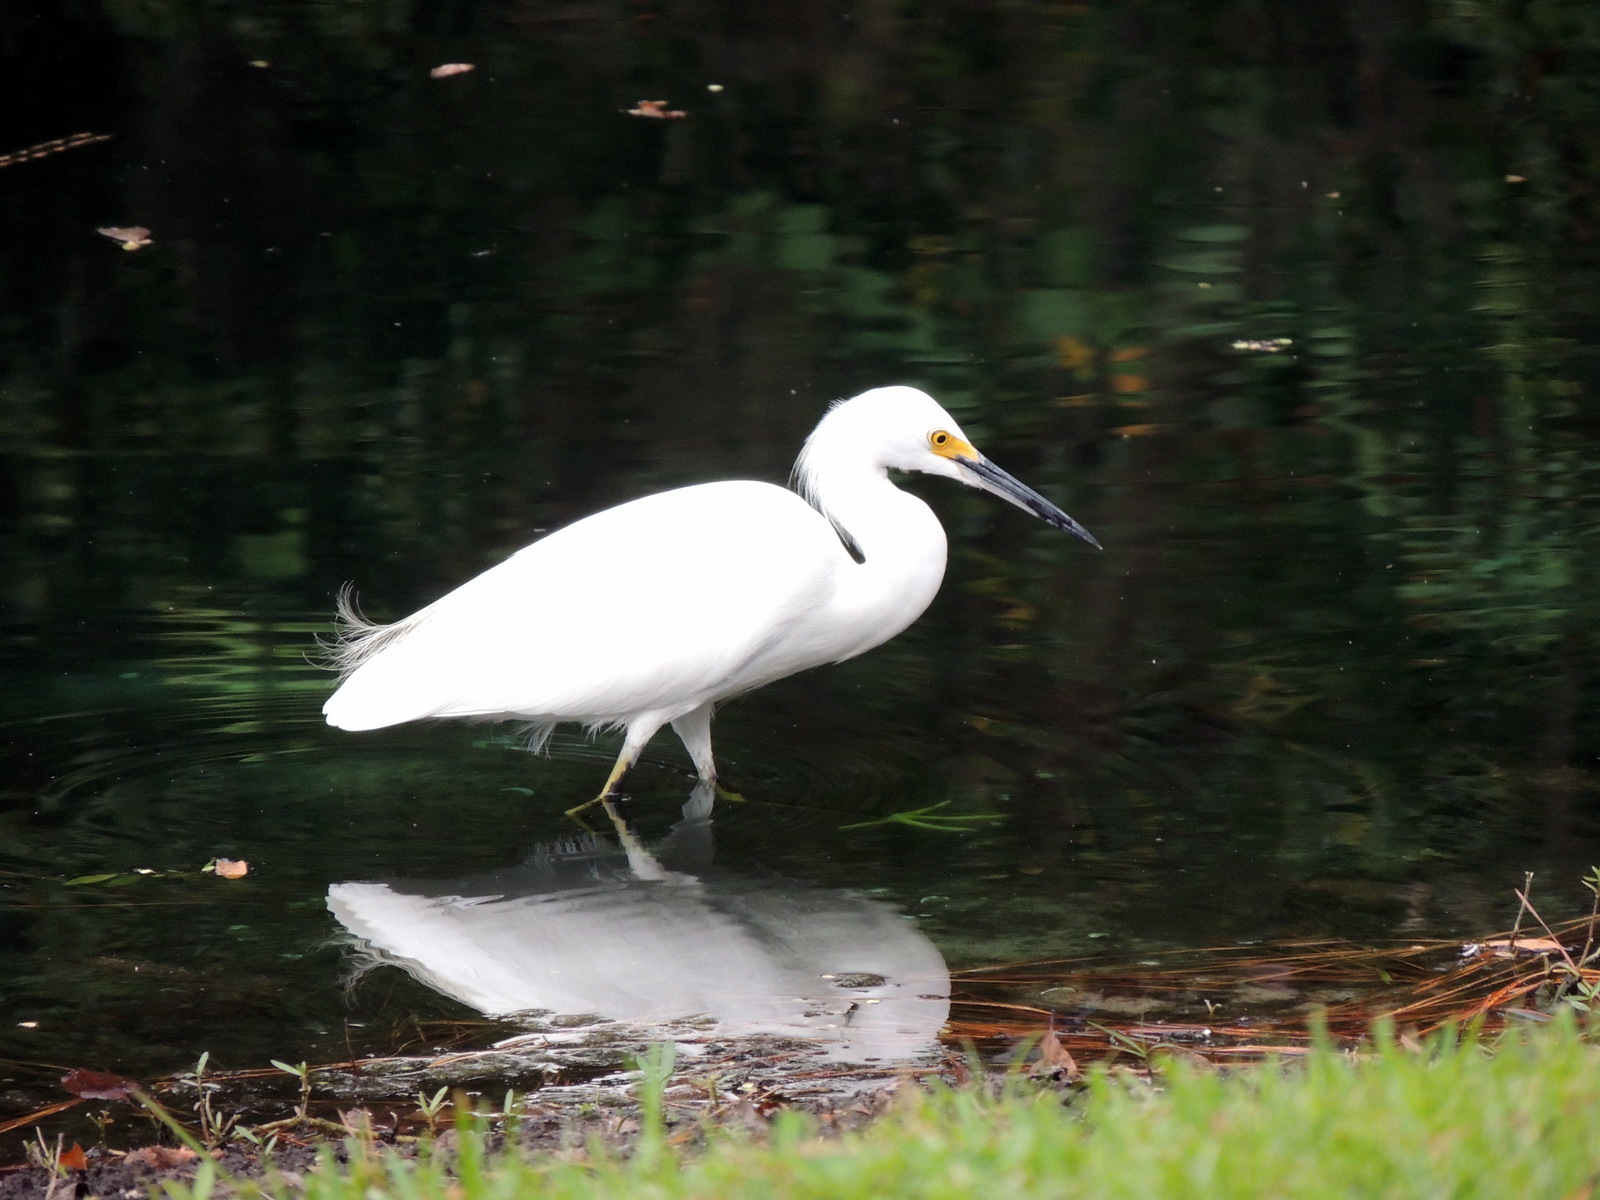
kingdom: Animalia
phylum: Chordata
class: Aves
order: Pelecaniformes
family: Ardeidae
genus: Egretta
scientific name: Egretta thula
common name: Snowy egret
